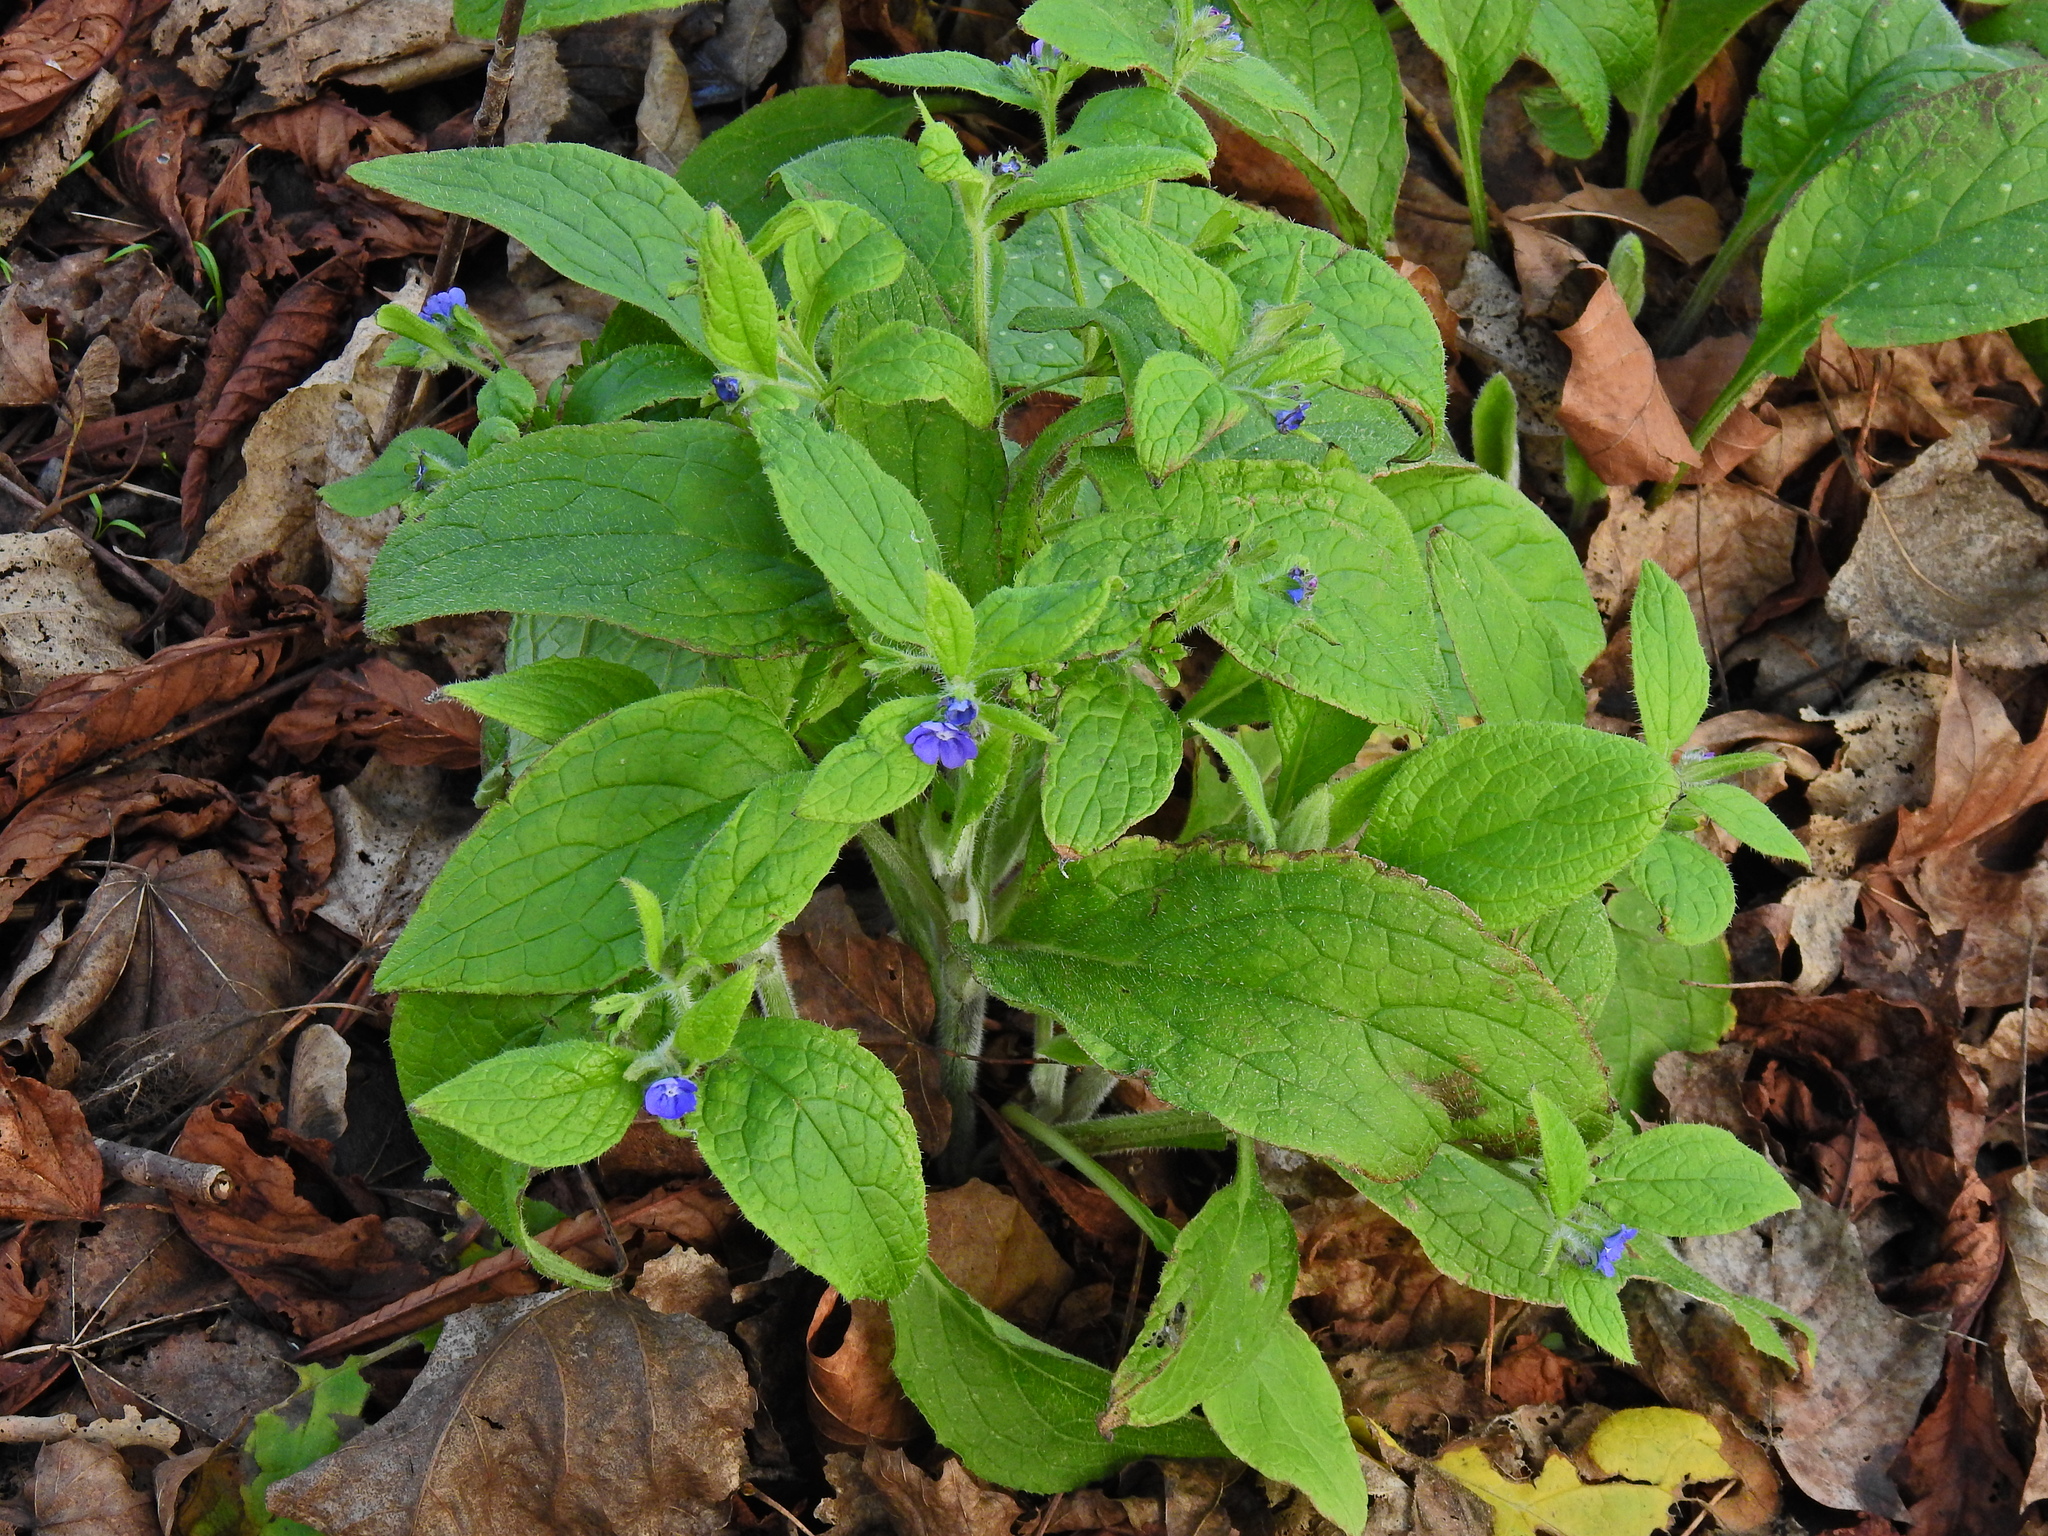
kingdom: Plantae
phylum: Tracheophyta
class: Magnoliopsida
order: Boraginales
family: Boraginaceae
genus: Pentaglottis
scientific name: Pentaglottis sempervirens
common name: Green alkanet
